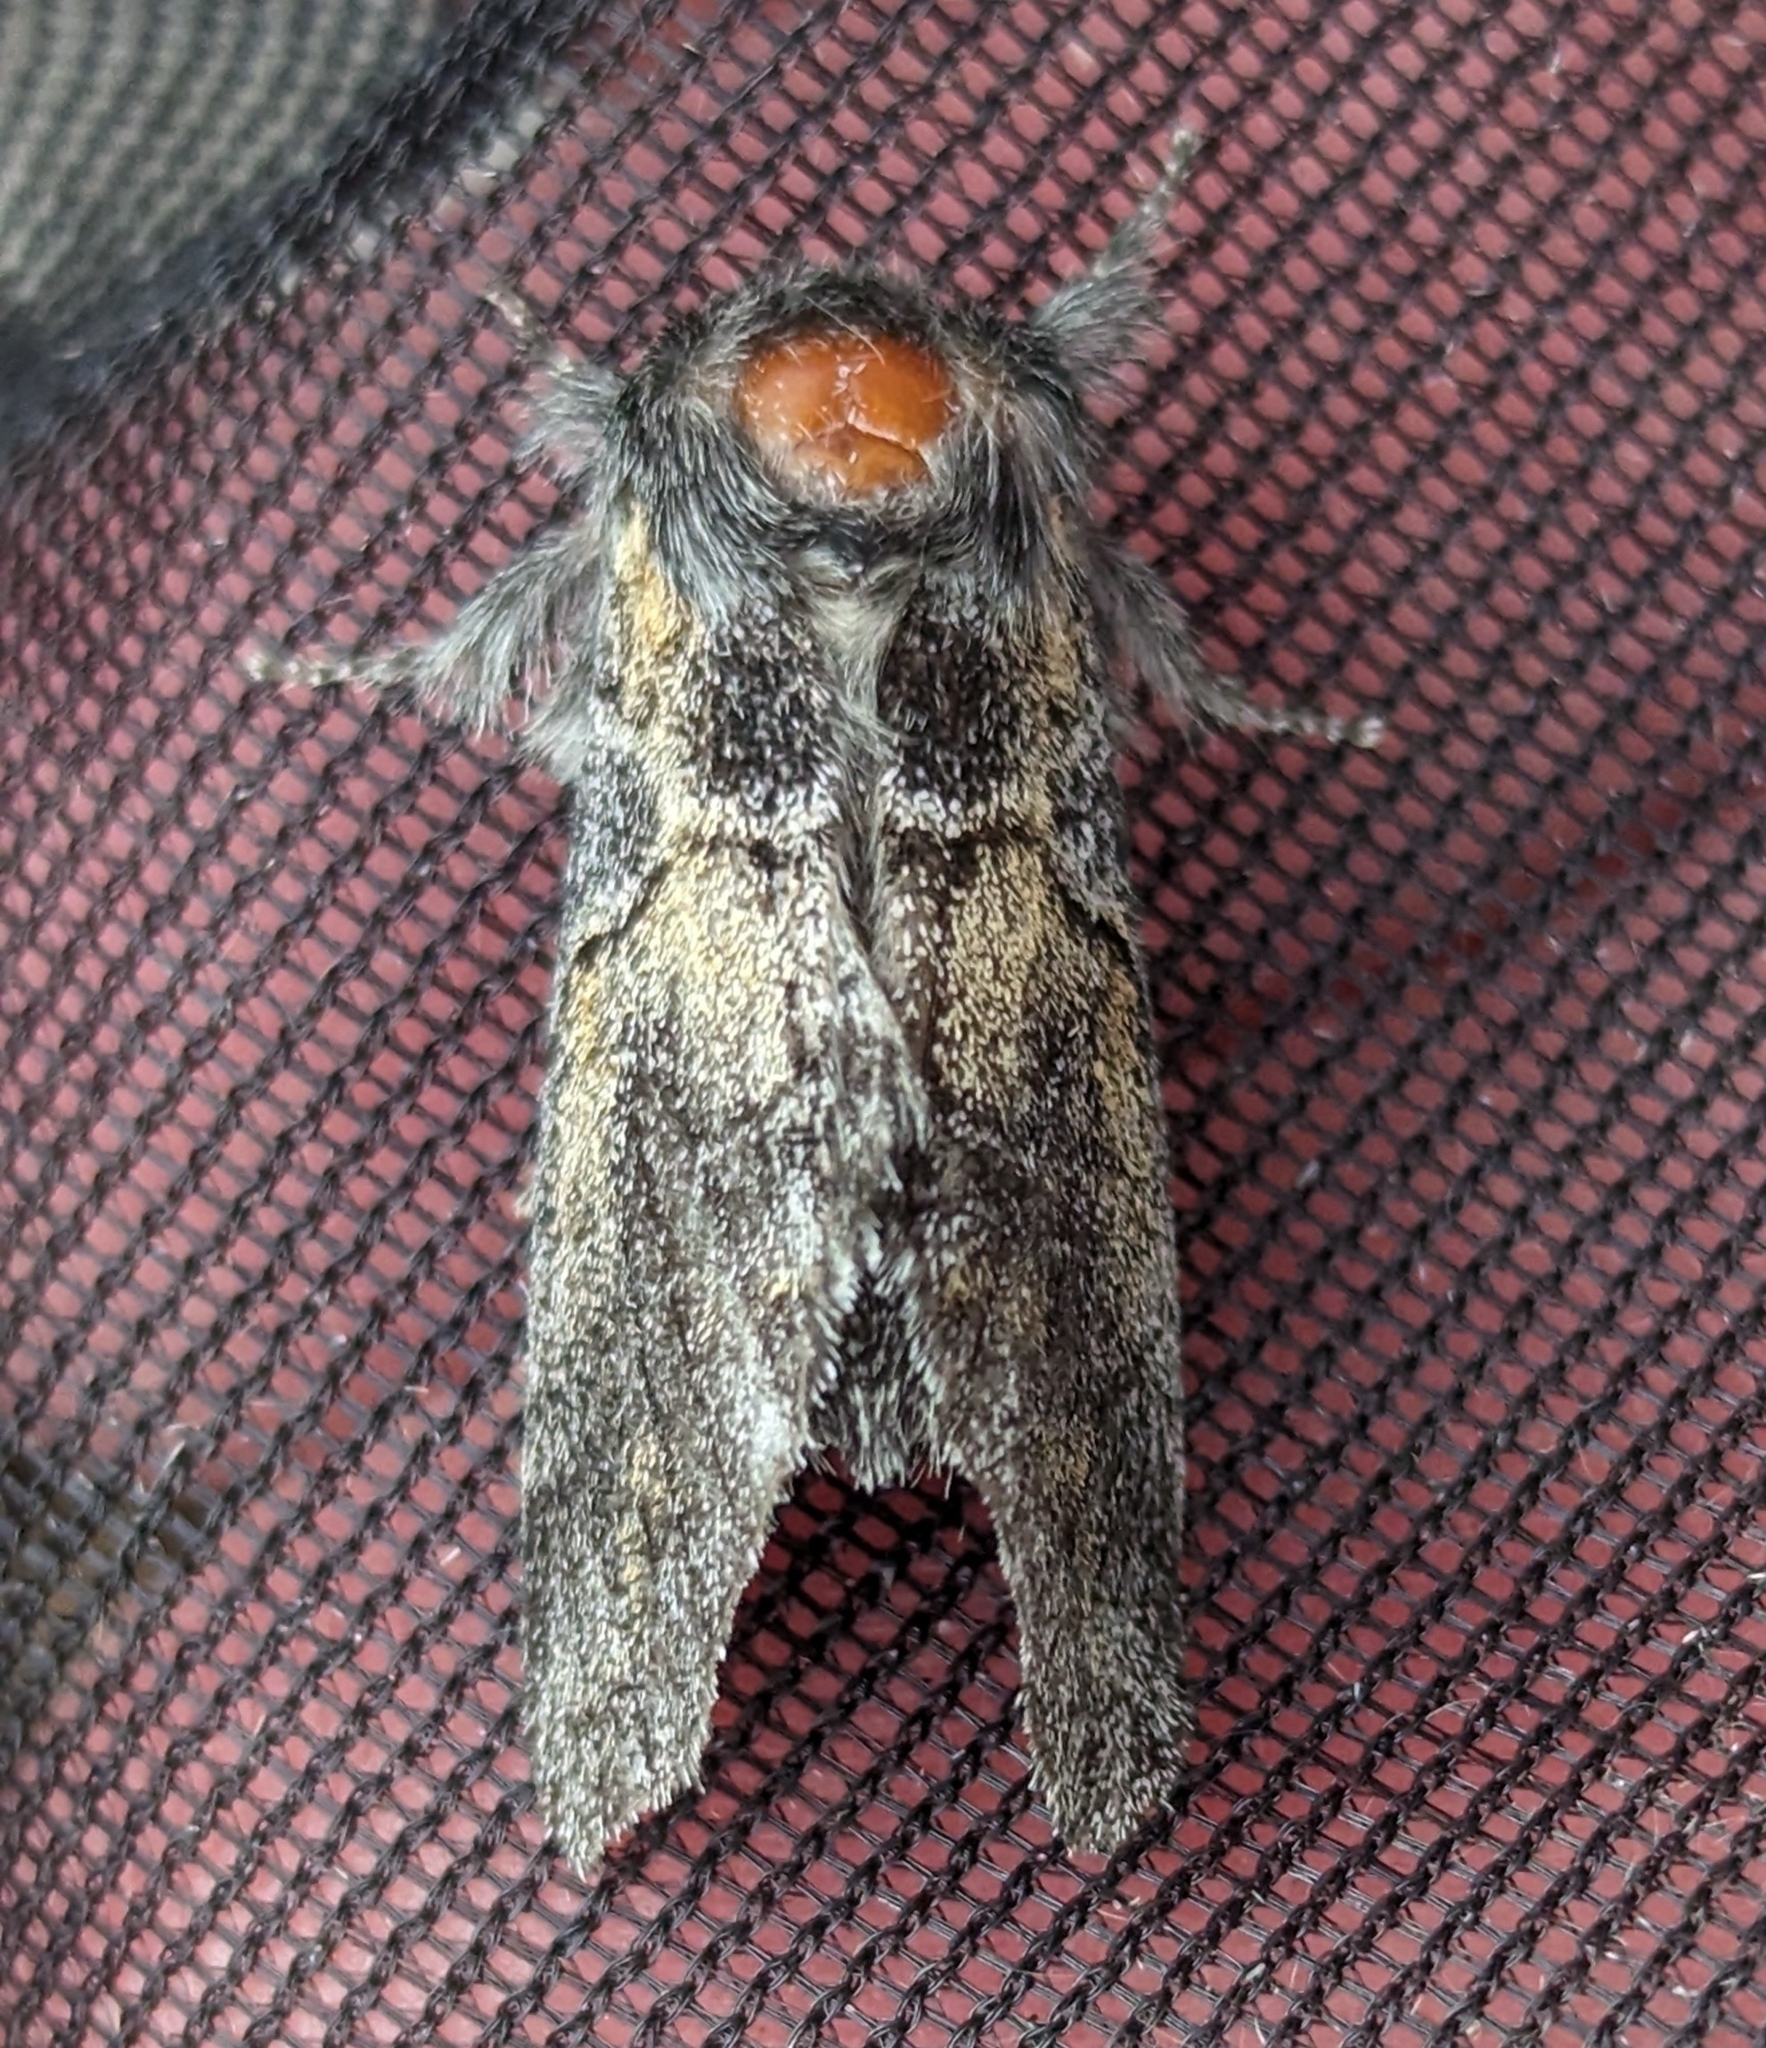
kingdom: Animalia
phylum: Arthropoda
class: Insecta
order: Lepidoptera
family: Notodontidae
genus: Gluphisia
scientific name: Gluphisia septentrionis
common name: Common gluphisia
